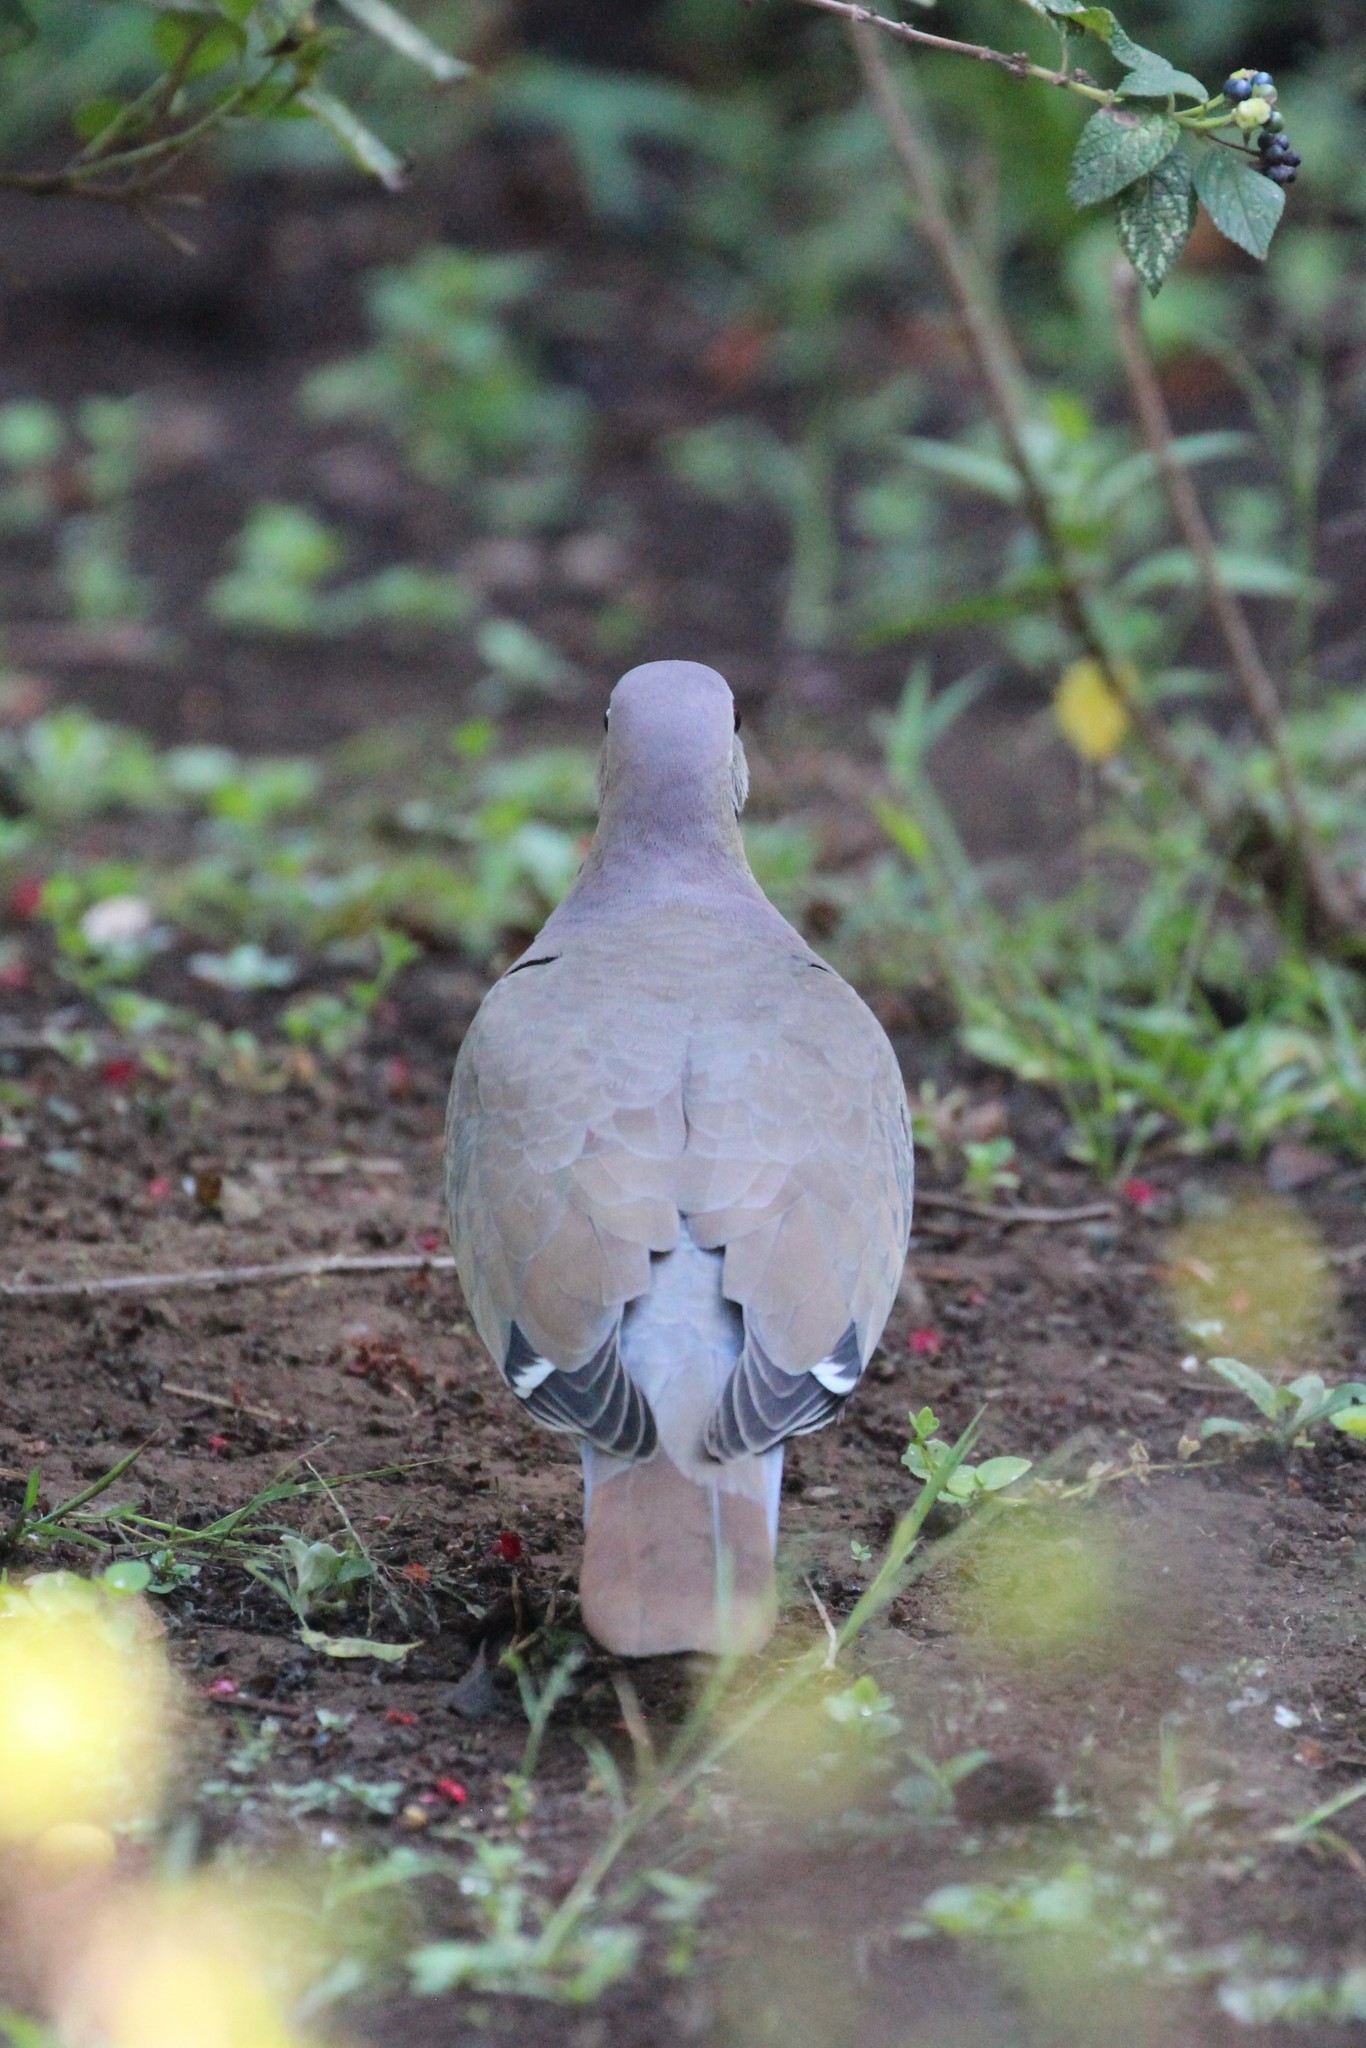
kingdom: Animalia
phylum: Chordata
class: Aves
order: Columbiformes
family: Columbidae
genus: Zenaida
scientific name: Zenaida asiatica
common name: White-winged dove
